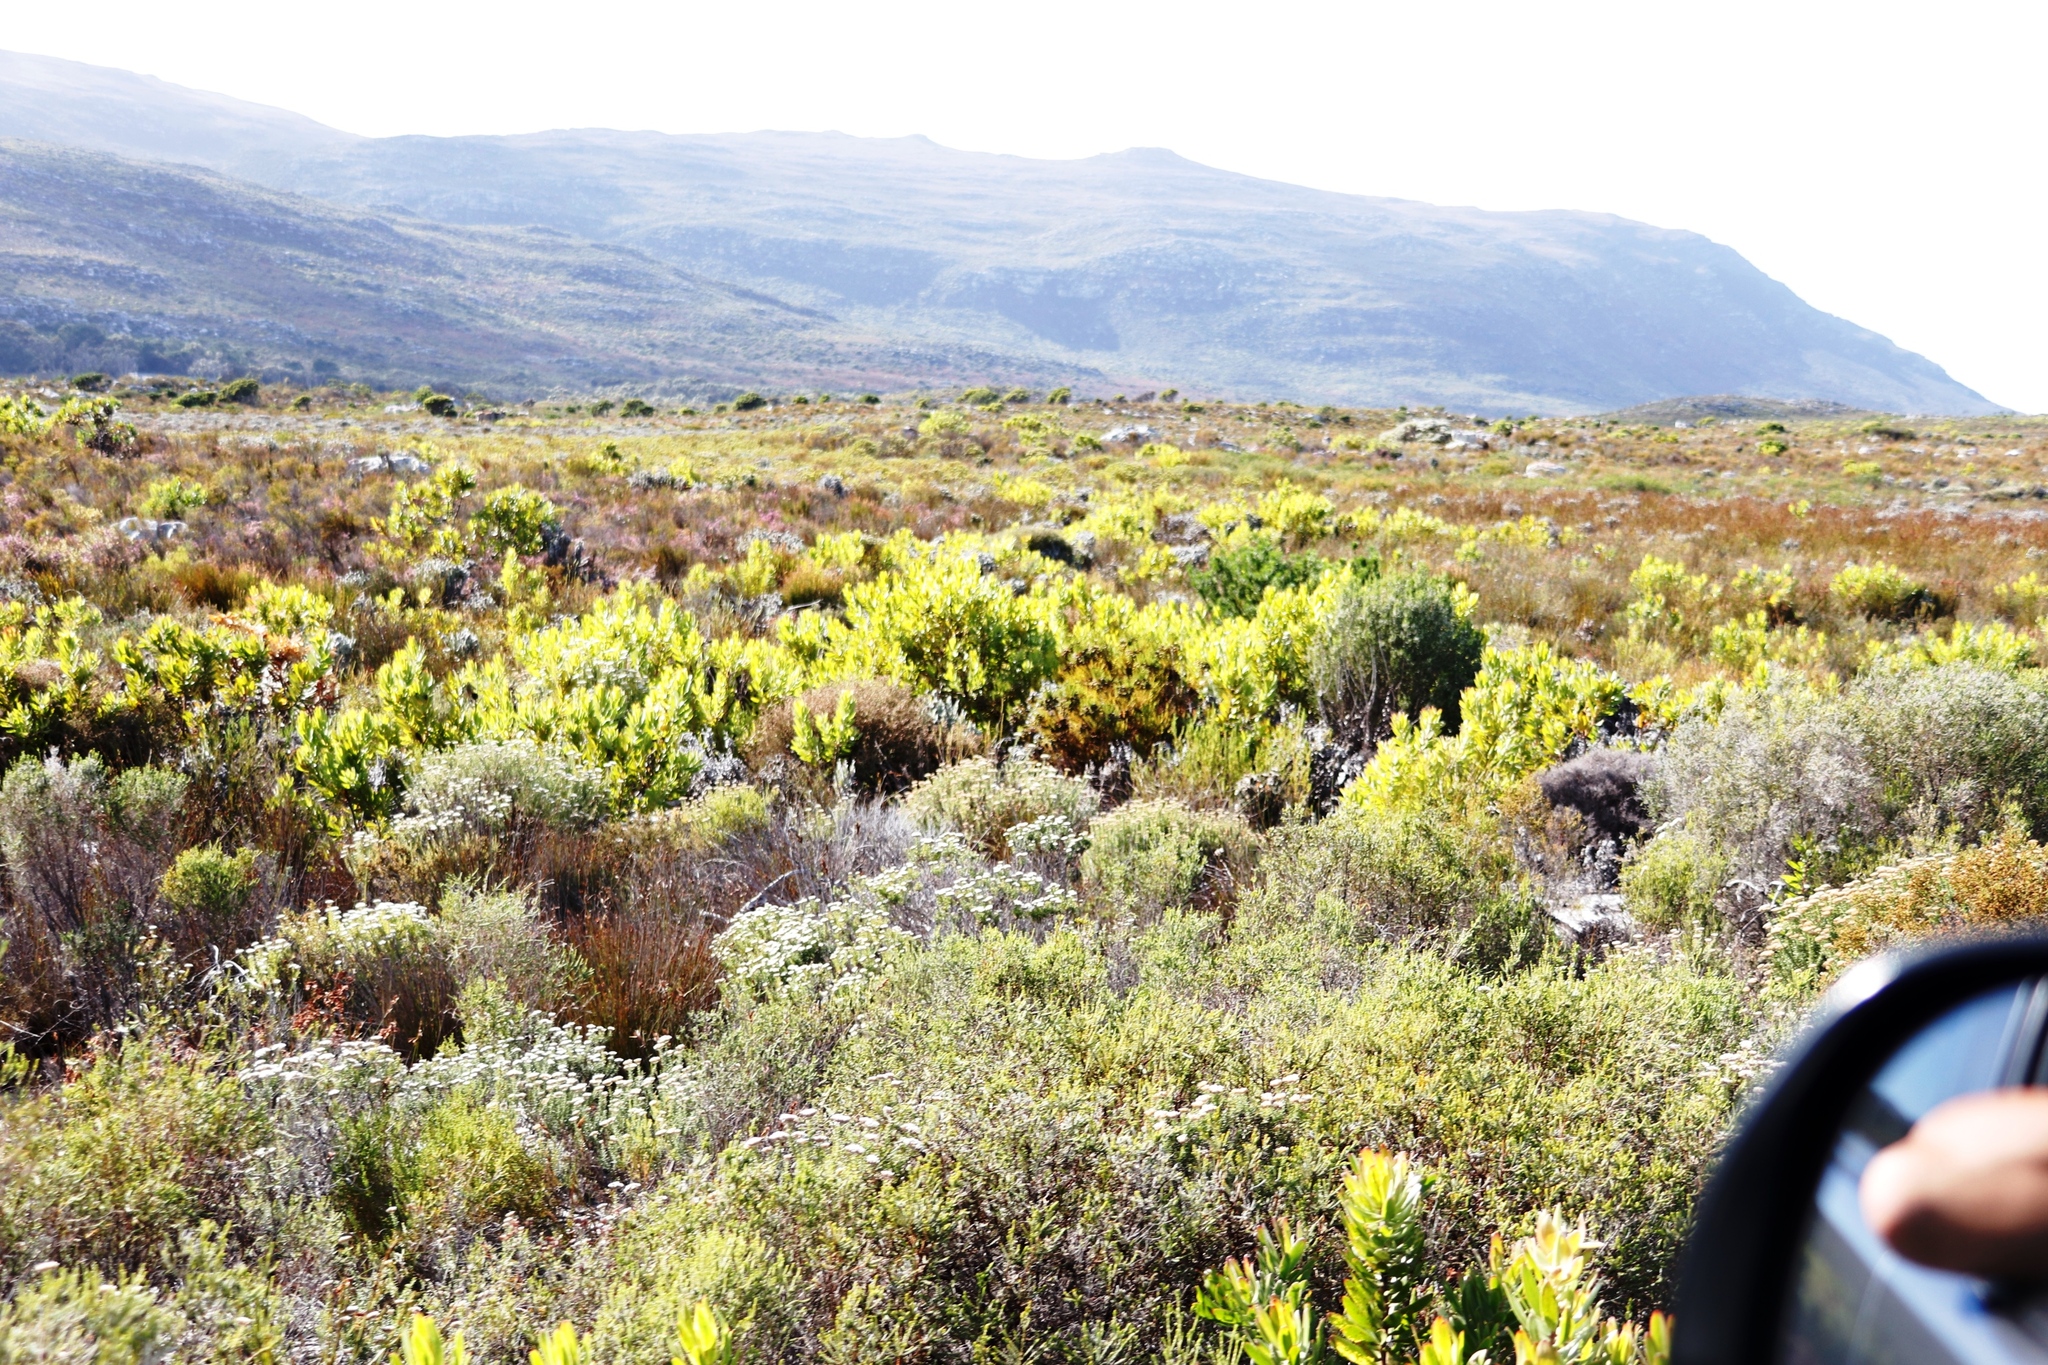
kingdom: Plantae
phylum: Tracheophyta
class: Magnoliopsida
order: Proteales
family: Proteaceae
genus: Leucadendron
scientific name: Leucadendron laureolum
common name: Golden sunshinebush
